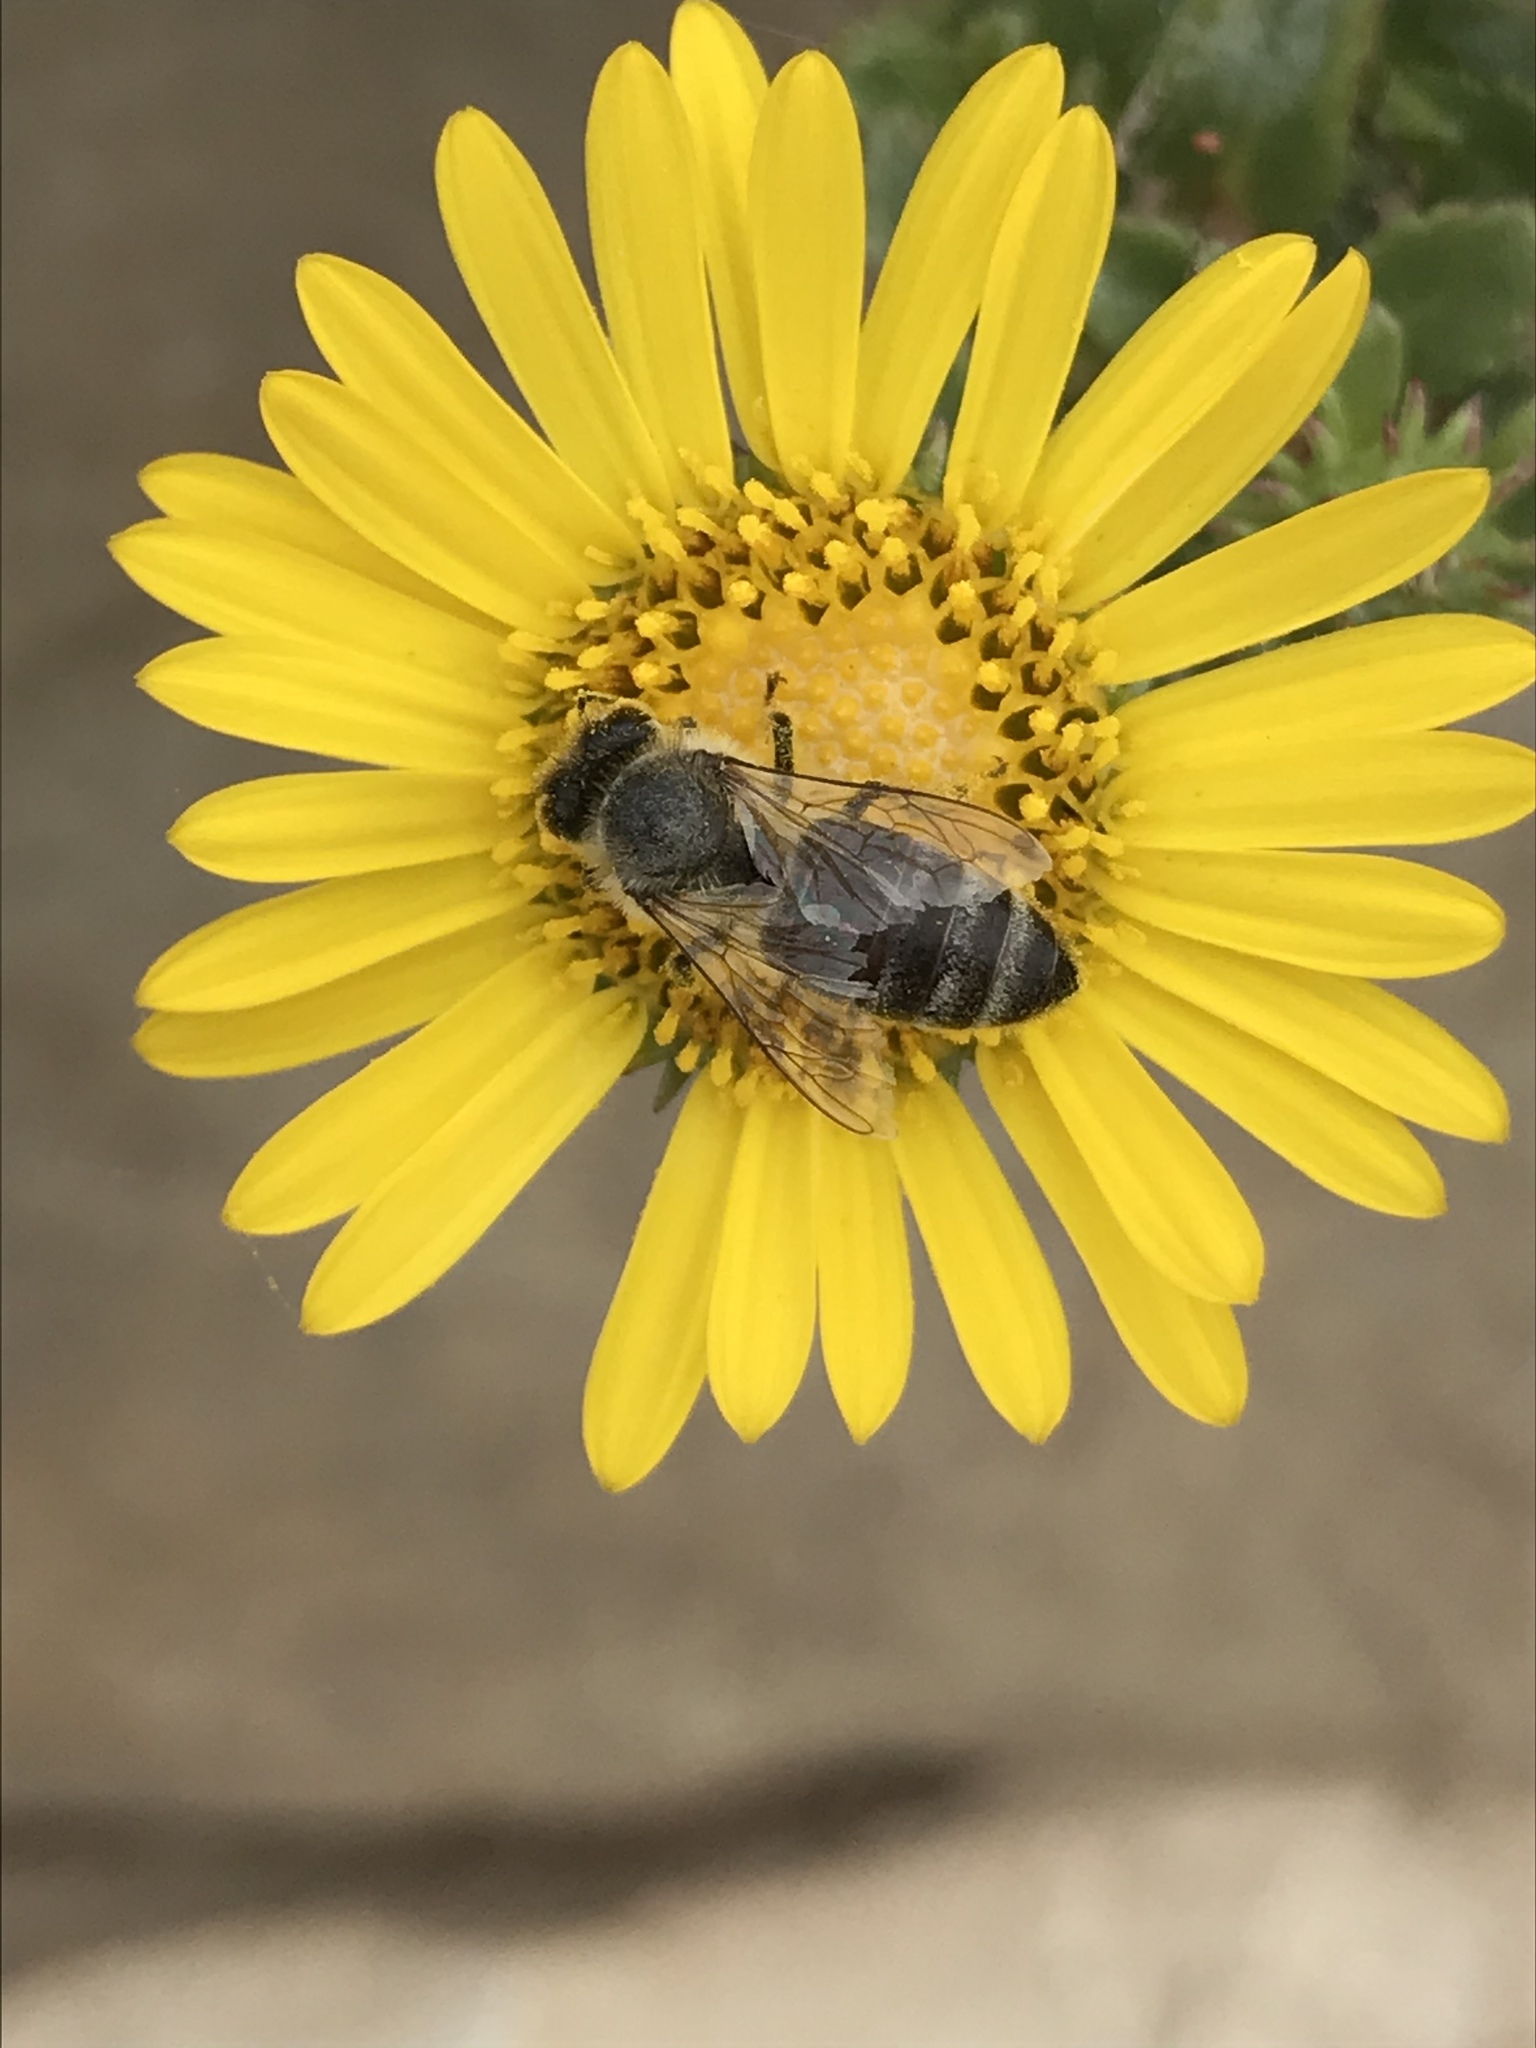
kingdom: Animalia
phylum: Arthropoda
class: Insecta
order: Hymenoptera
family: Apidae
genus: Apis
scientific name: Apis mellifera
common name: Honey bee
